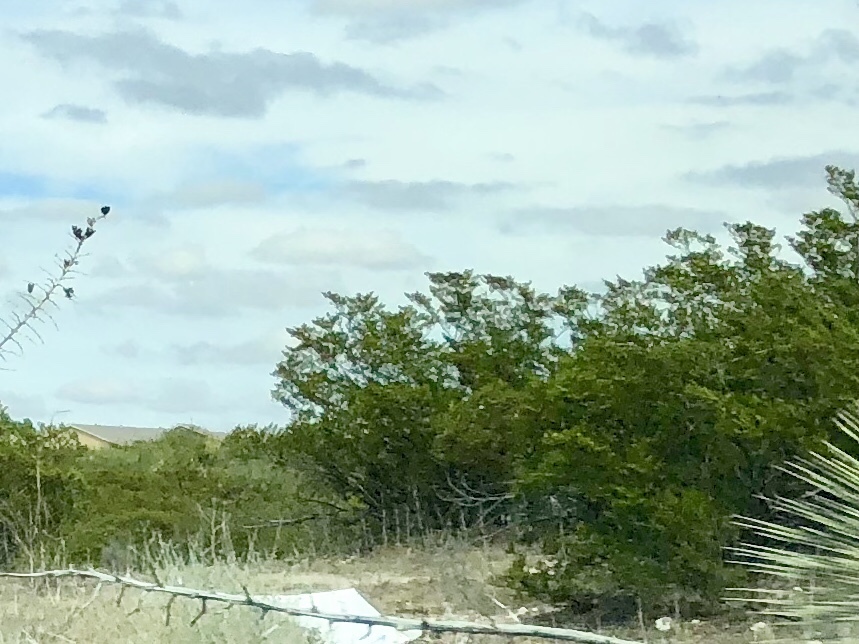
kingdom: Plantae
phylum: Tracheophyta
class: Magnoliopsida
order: Zygophyllales
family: Zygophyllaceae
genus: Larrea
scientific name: Larrea tridentata
